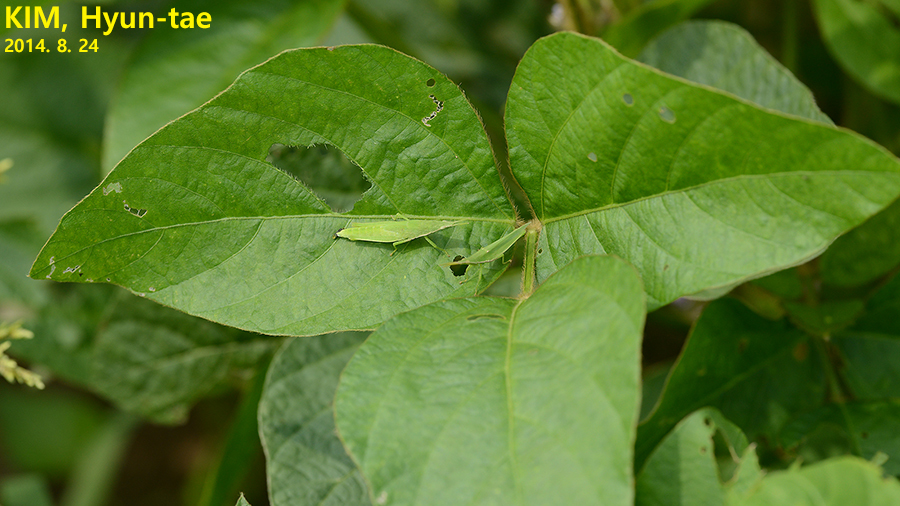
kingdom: Animalia
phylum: Arthropoda
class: Insecta
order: Orthoptera
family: Pyrgomorphidae
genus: Atractomorpha
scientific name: Atractomorpha lata
